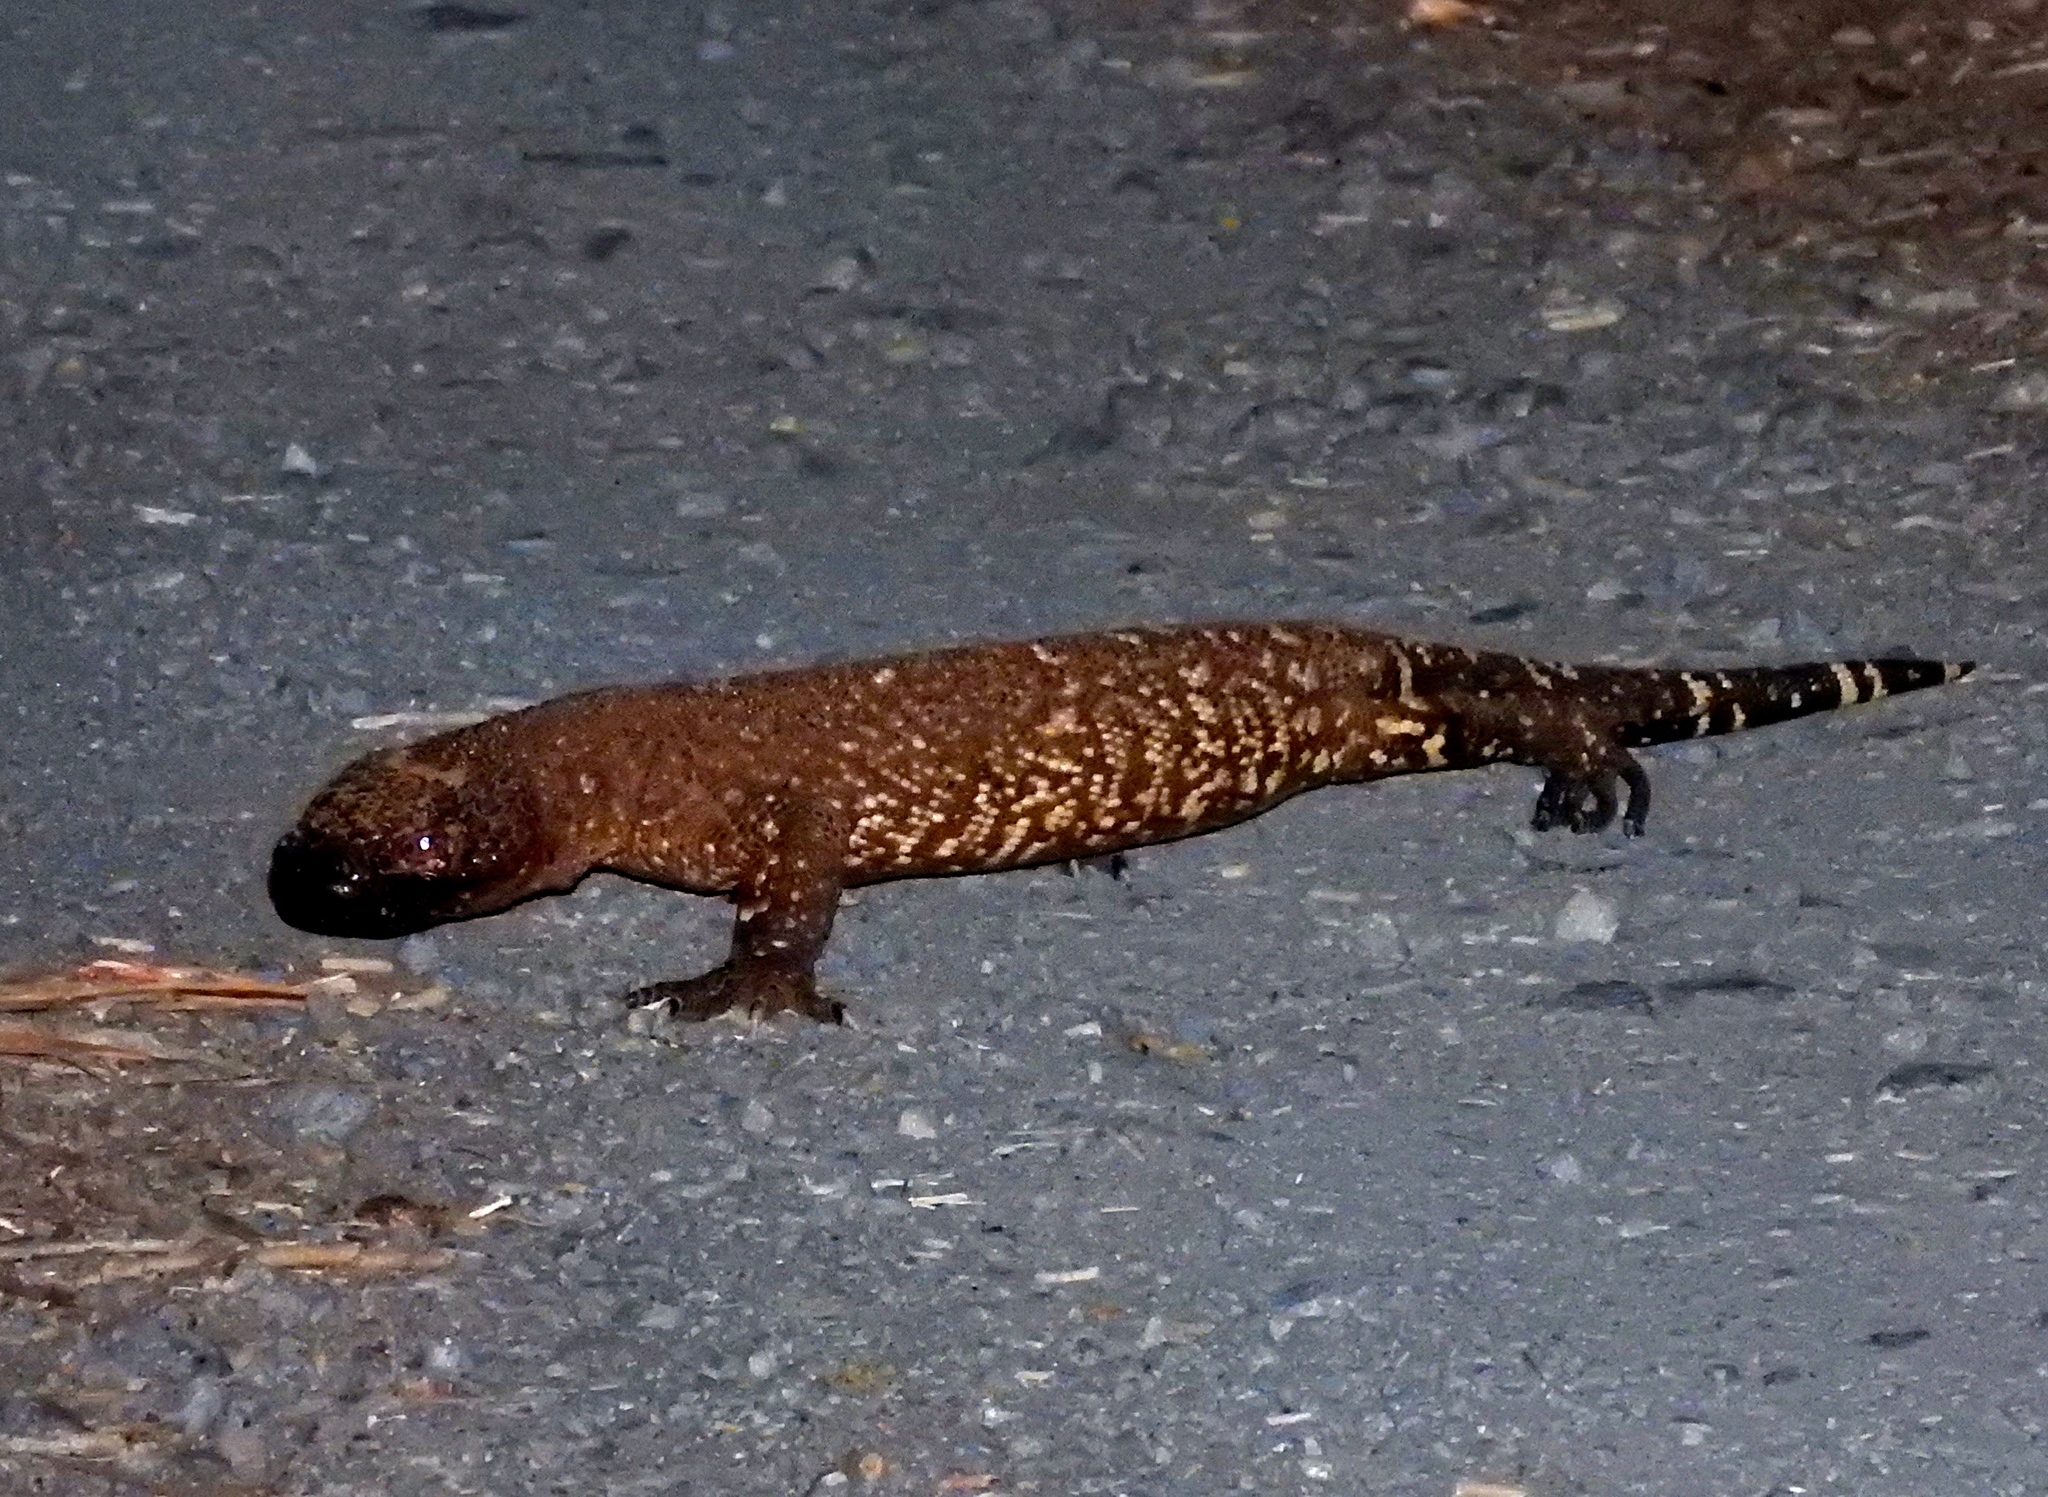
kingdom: Animalia
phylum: Chordata
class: Squamata
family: Helodermatidae
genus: Heloderma
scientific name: Heloderma horridum
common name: Mexican beaded lizard
